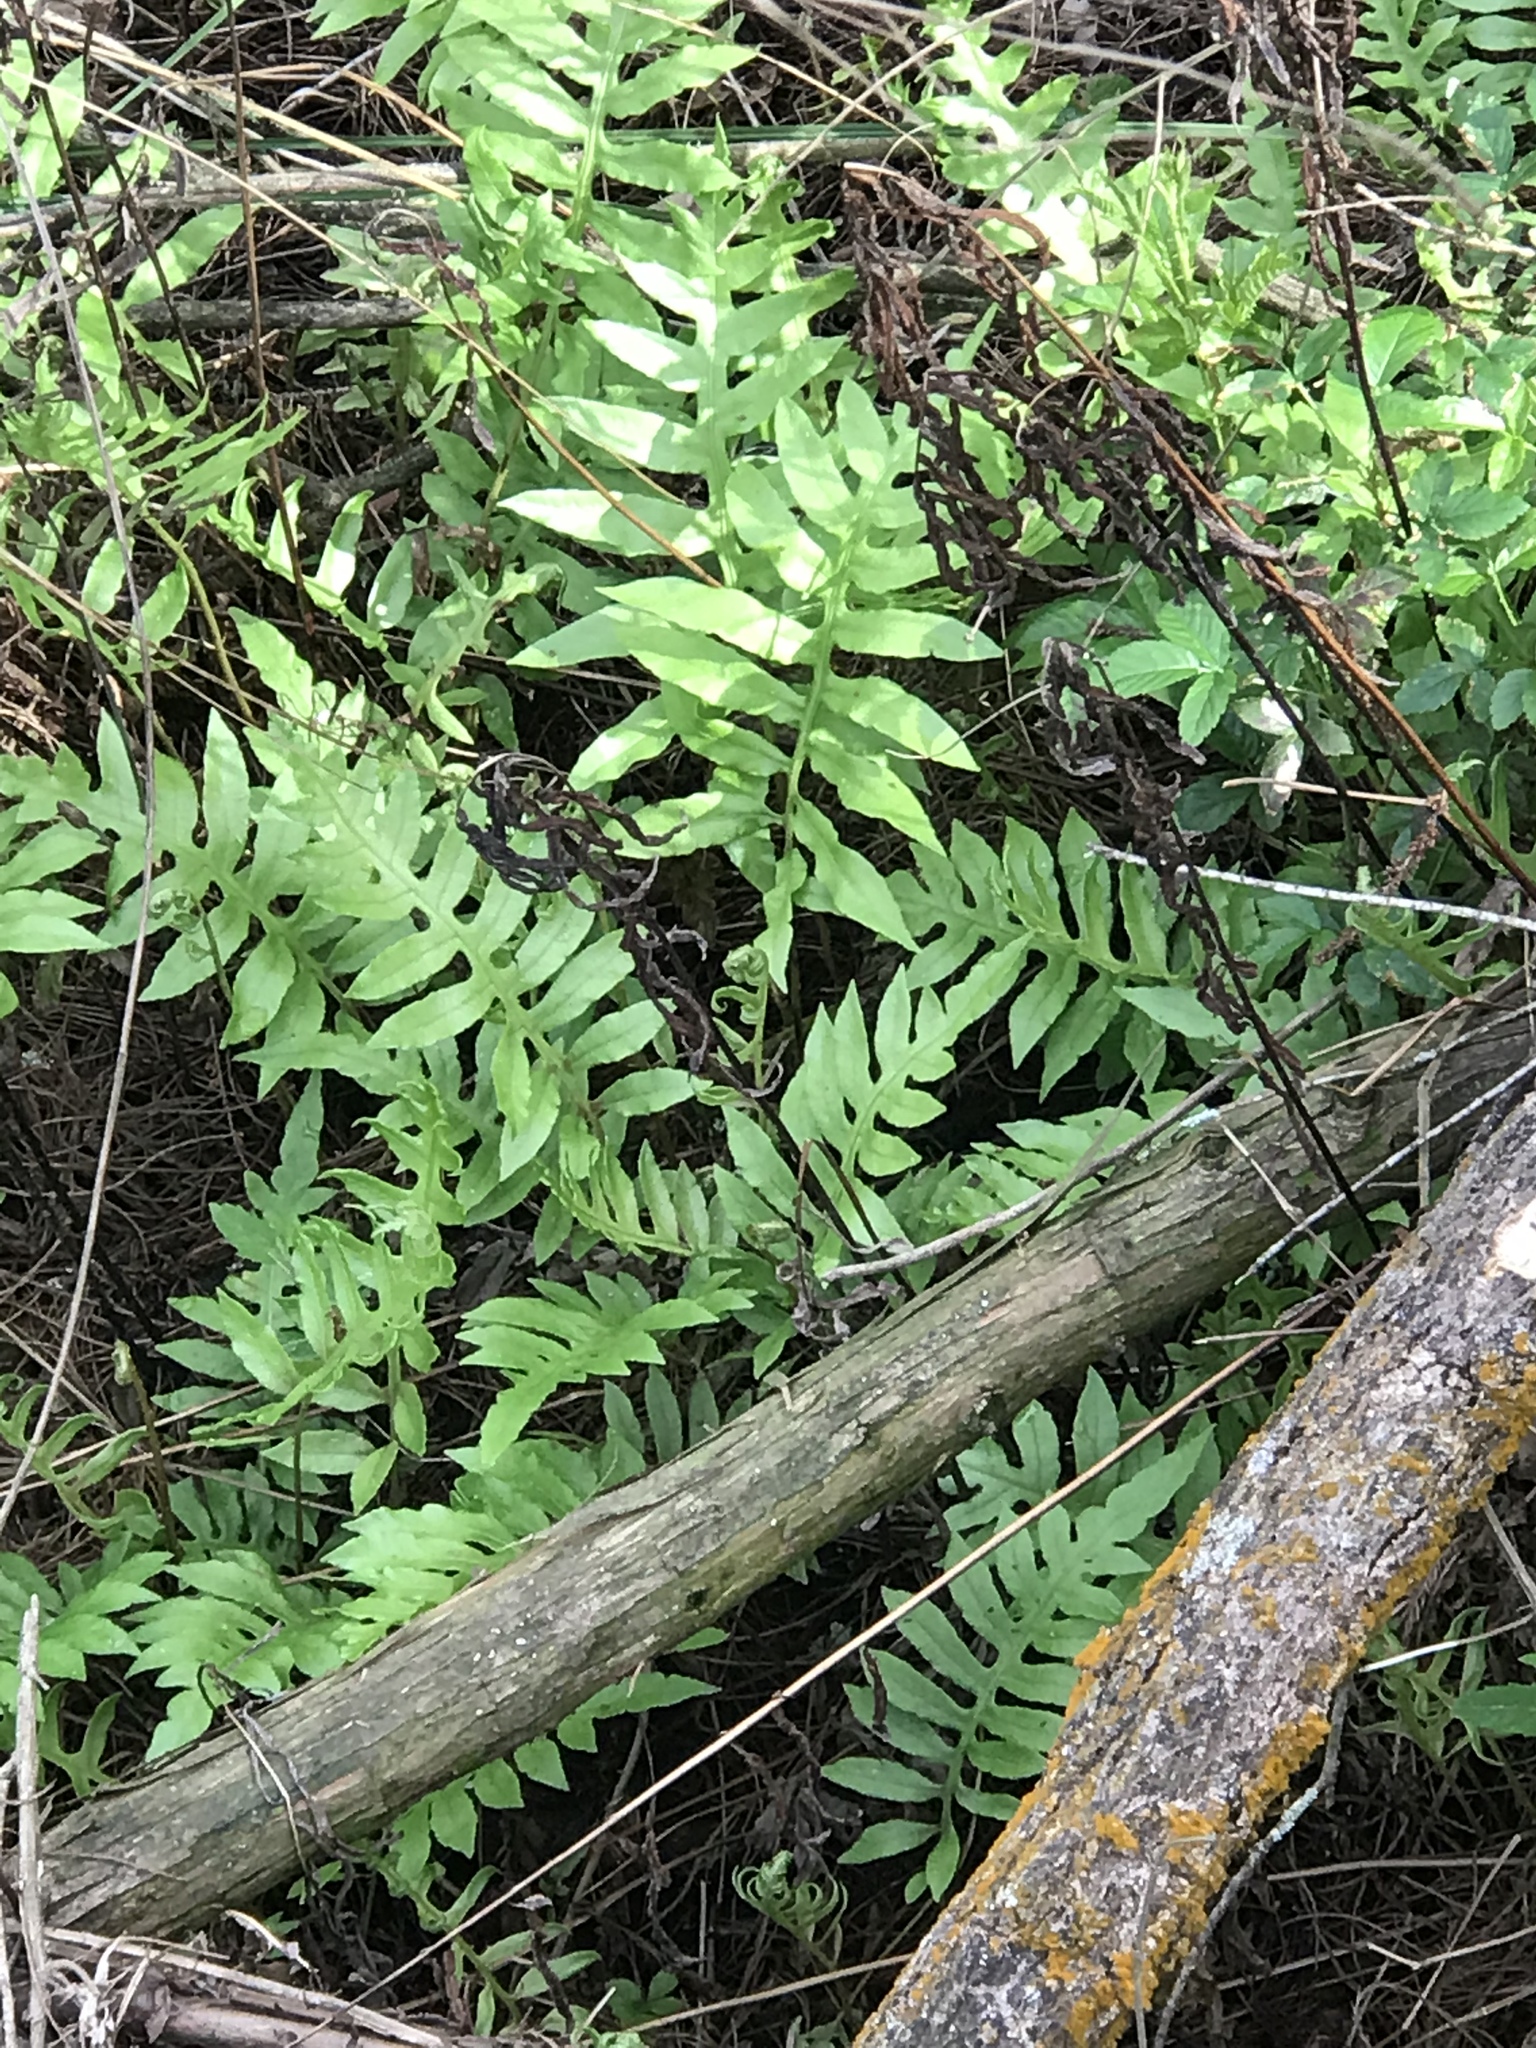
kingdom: Plantae
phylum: Tracheophyta
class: Polypodiopsida
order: Polypodiales
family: Blechnaceae
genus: Lorinseria
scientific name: Lorinseria areolata
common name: Dwarf chain fern
